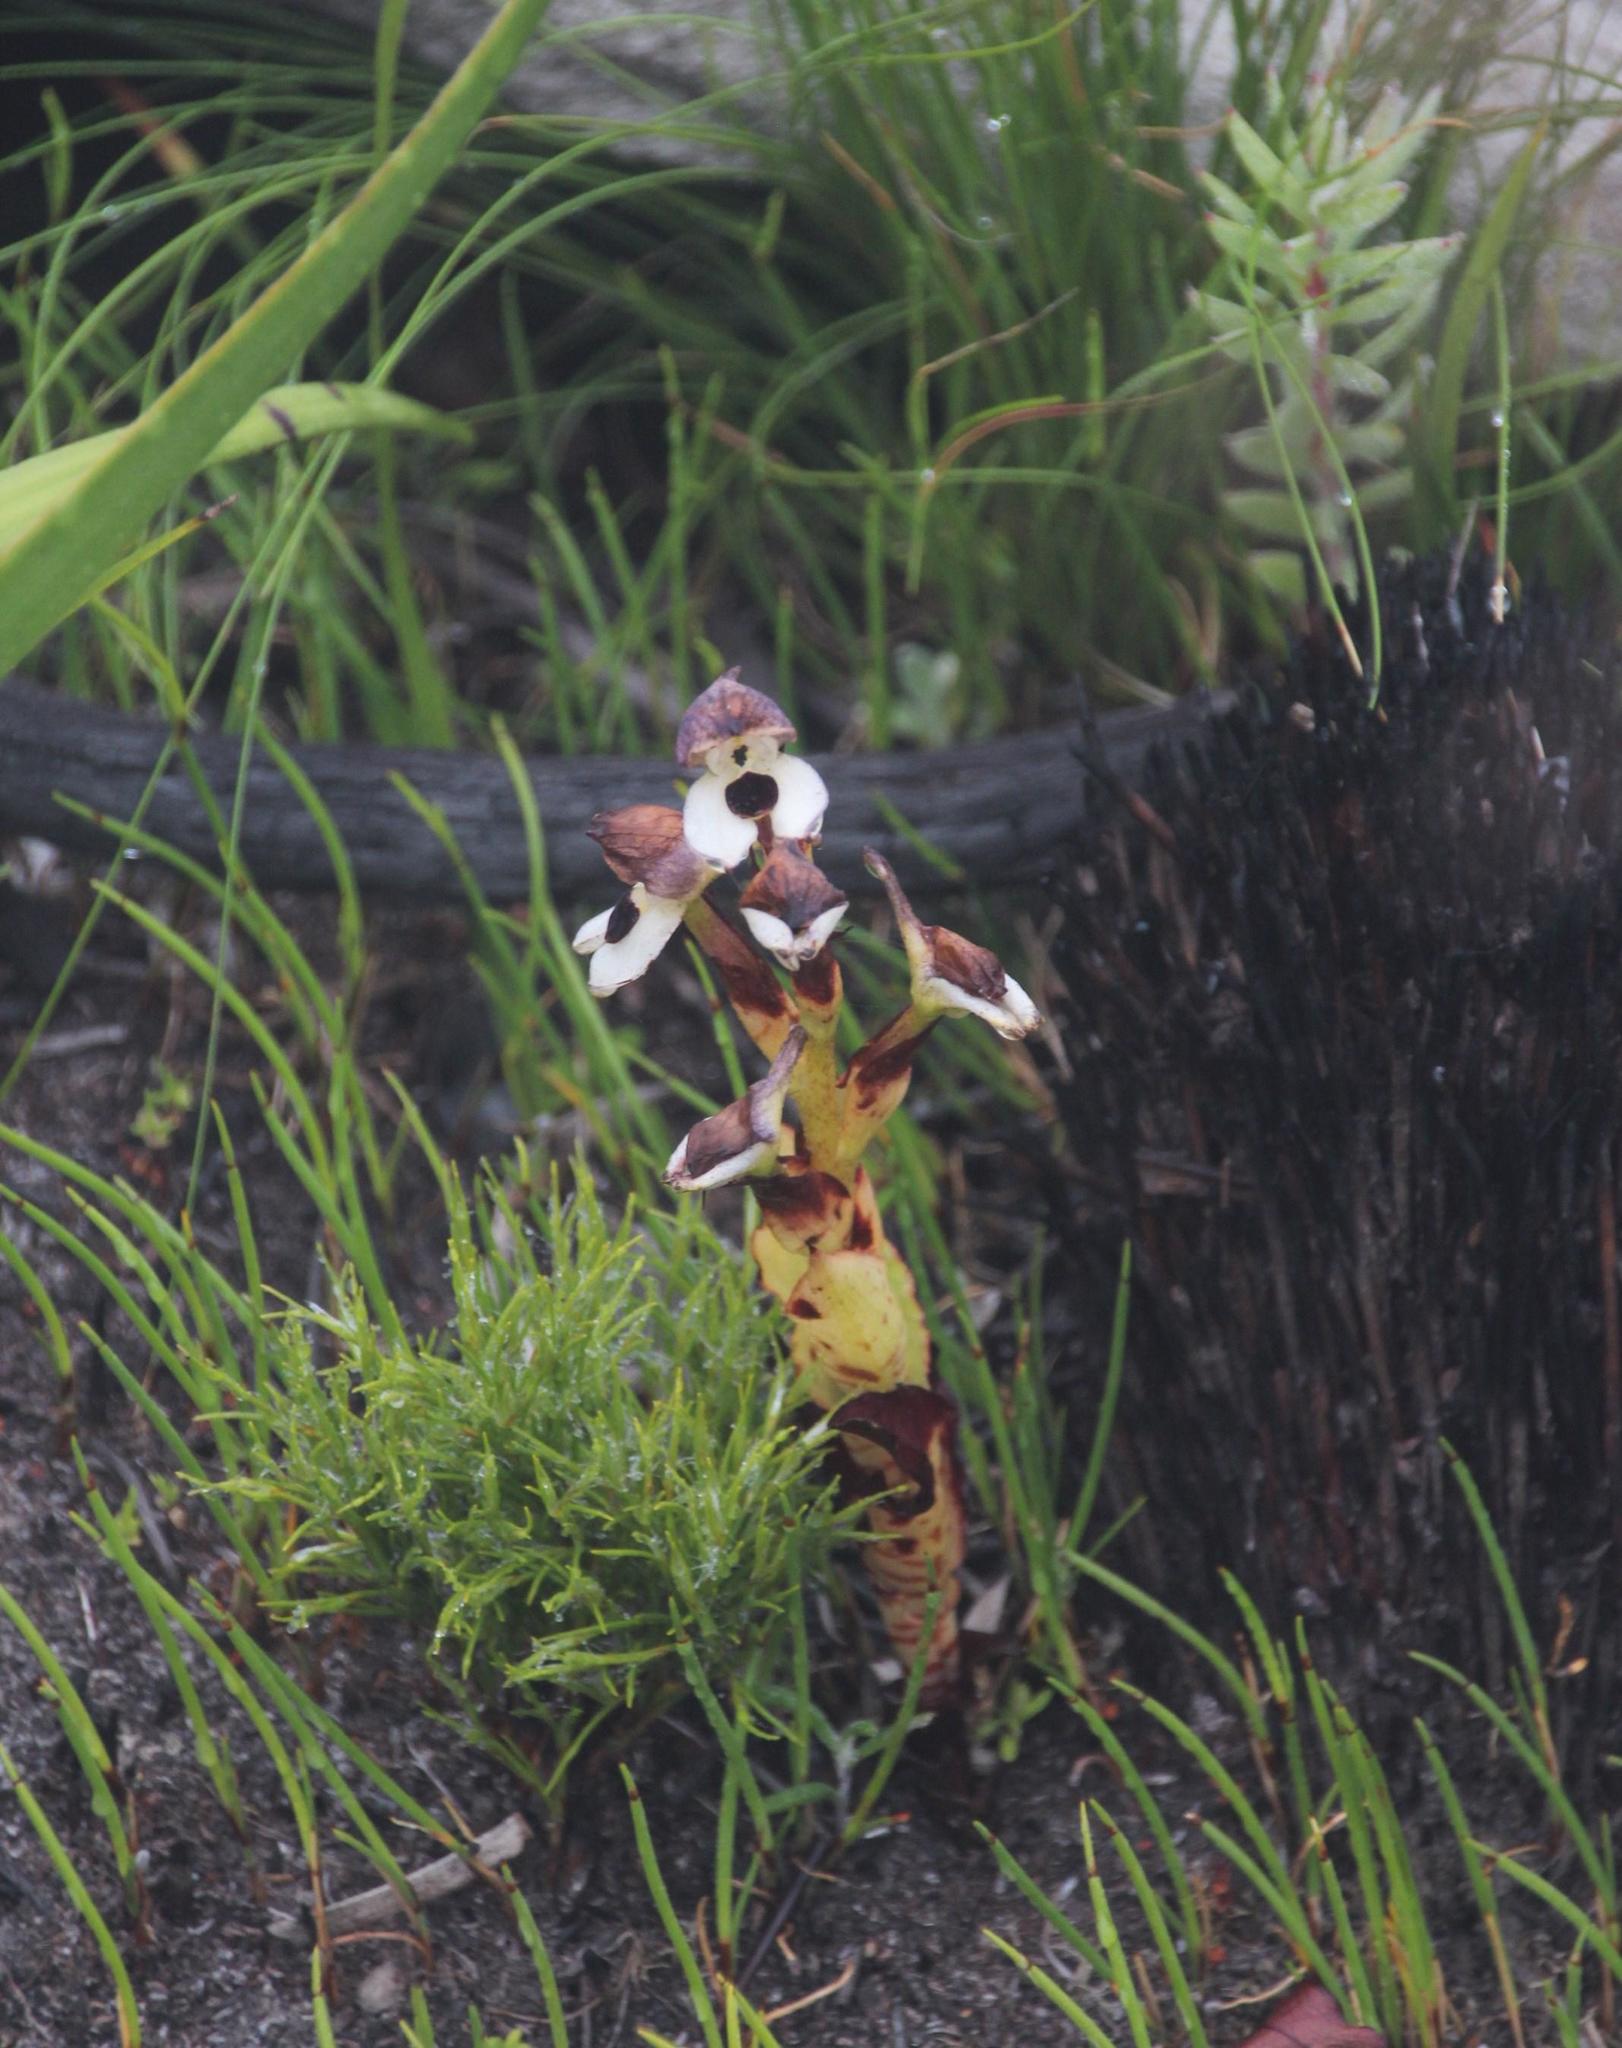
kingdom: Plantae
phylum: Tracheophyta
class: Liliopsida
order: Asparagales
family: Orchidaceae
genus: Disa
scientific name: Disa cornuta
